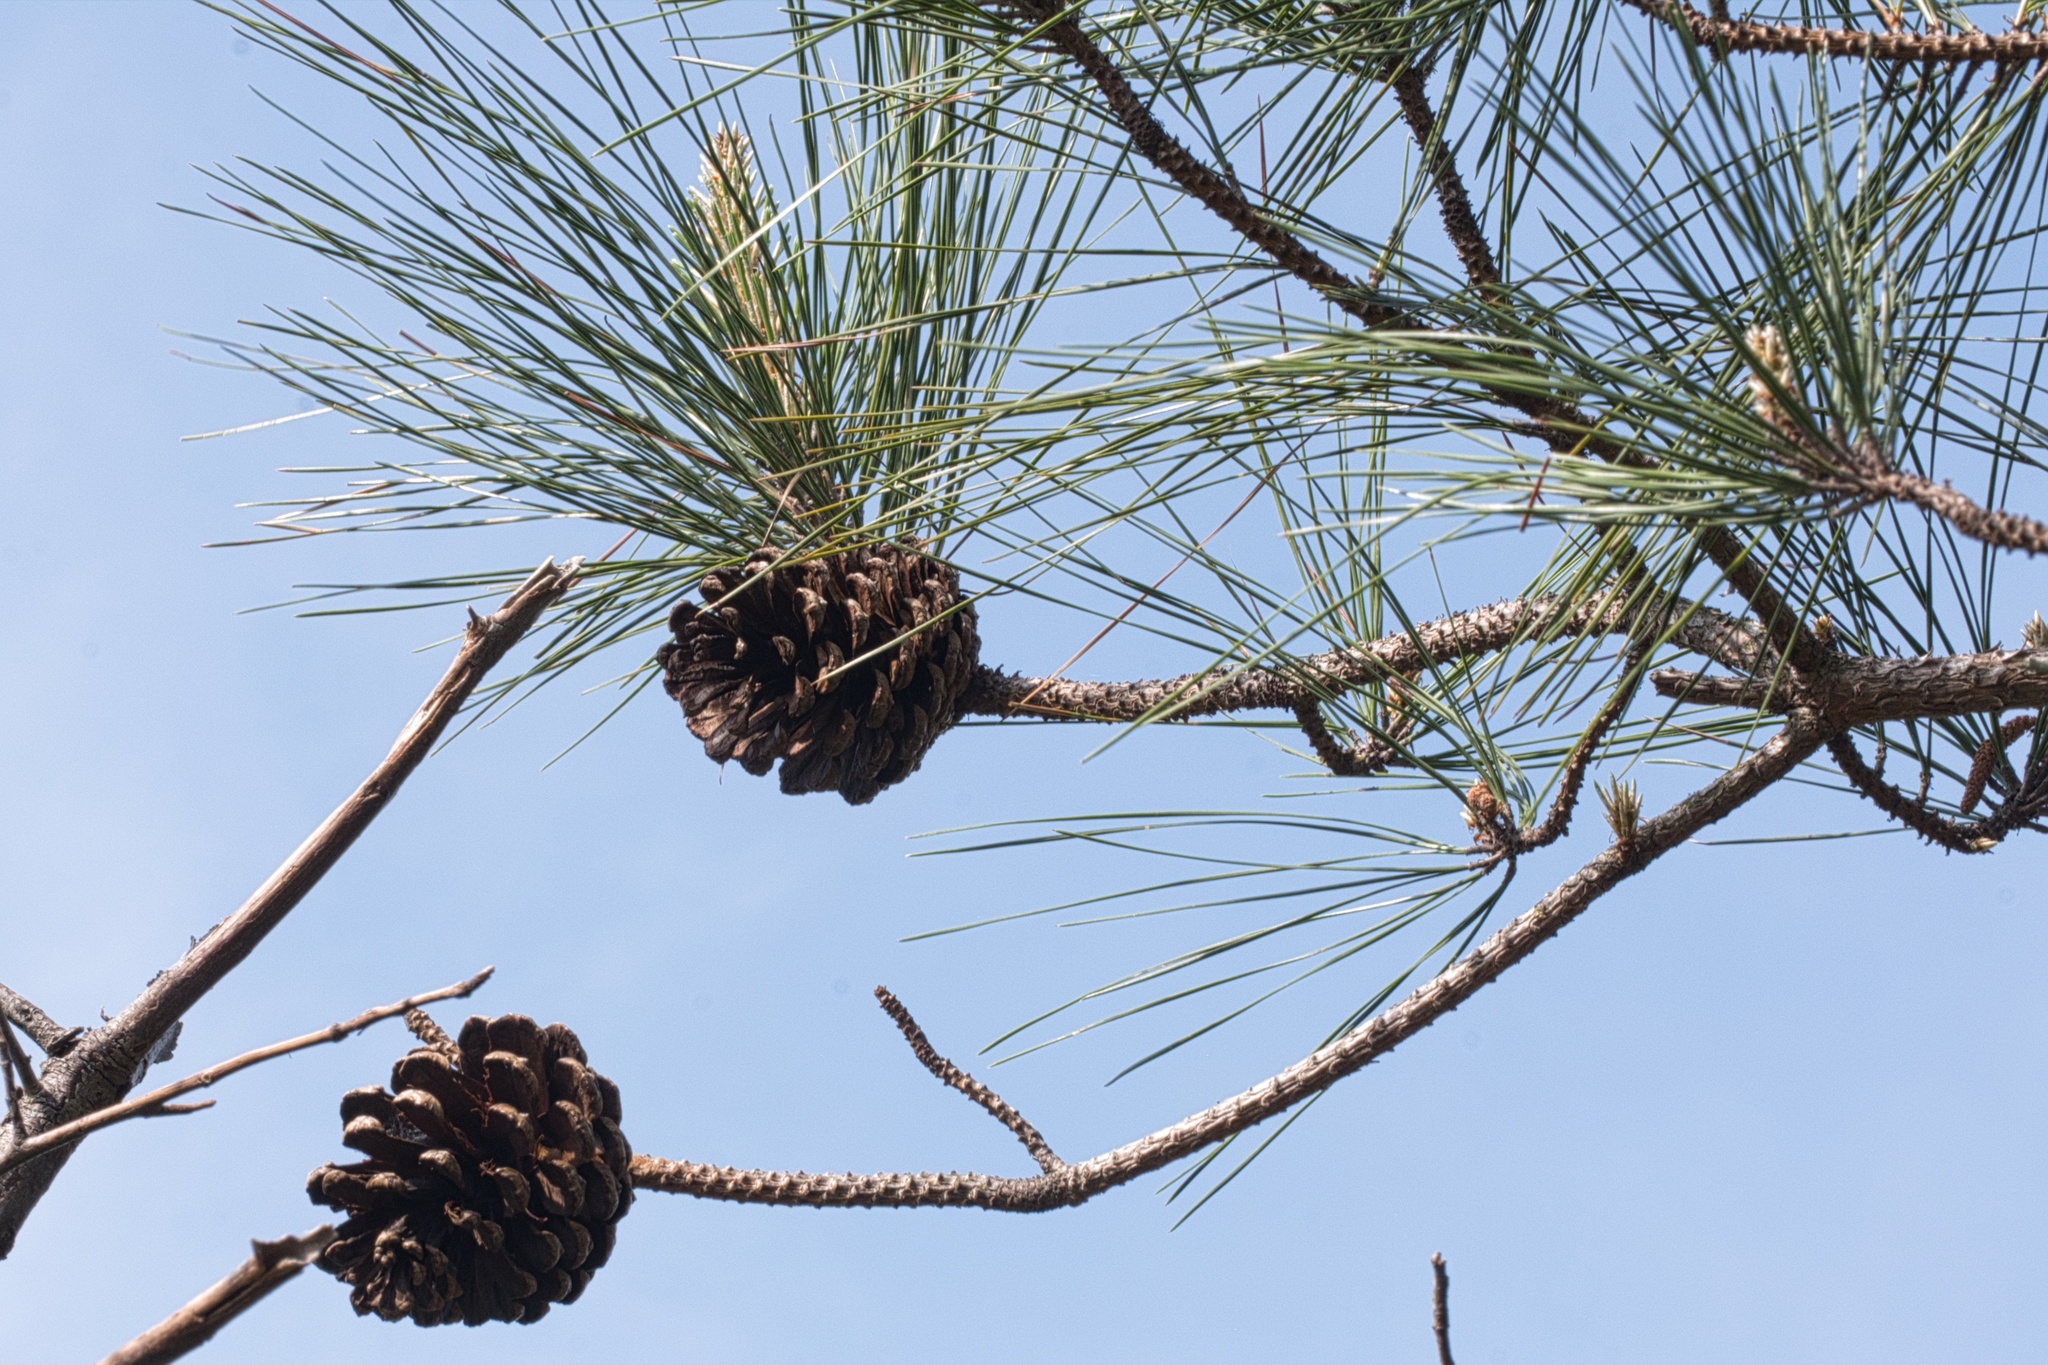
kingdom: Plantae
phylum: Tracheophyta
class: Pinopsida
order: Pinales
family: Pinaceae
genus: Pinus
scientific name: Pinus taeda
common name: Loblolly pine
